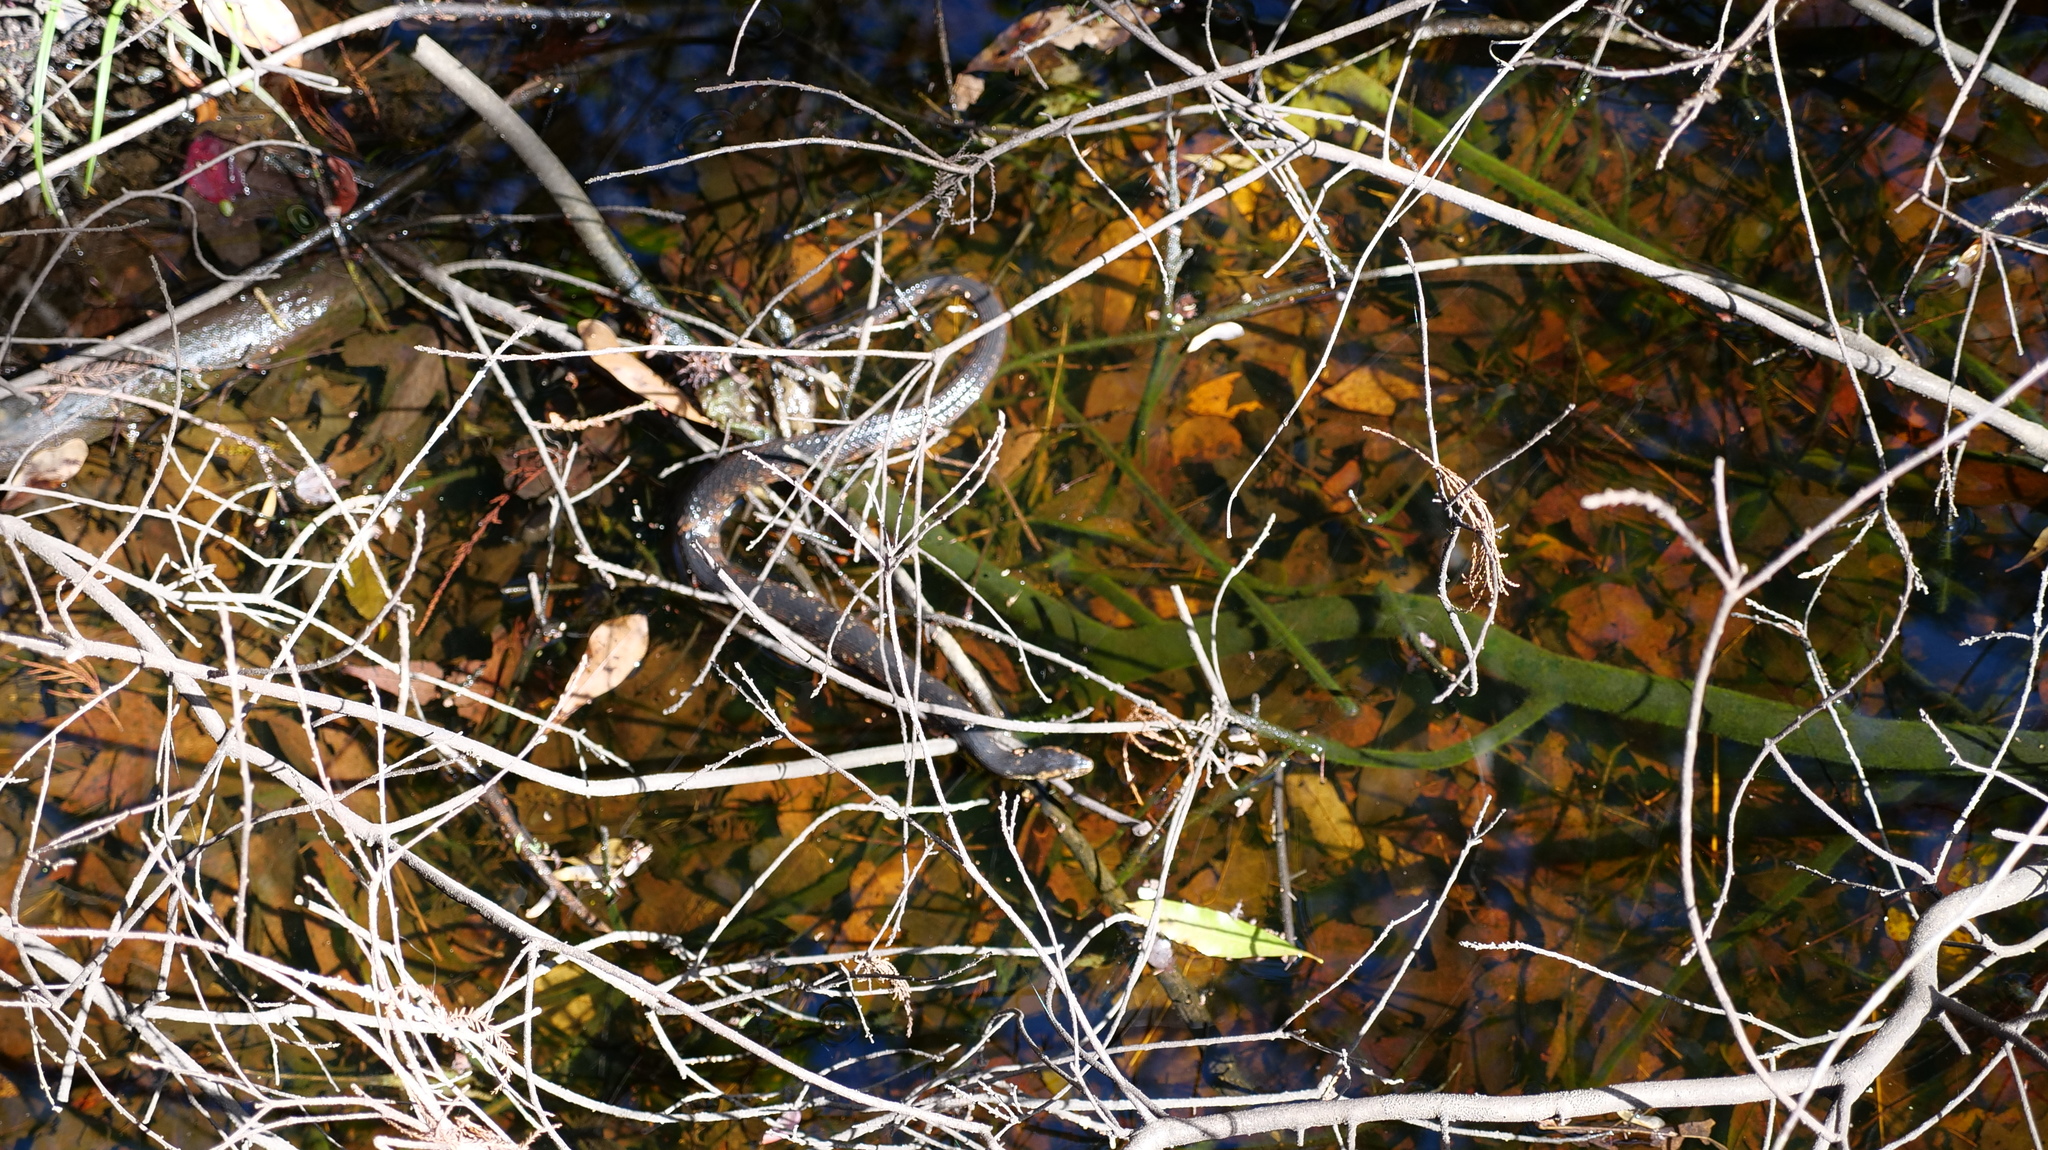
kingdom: Animalia
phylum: Chordata
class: Squamata
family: Colubridae
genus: Nerodia
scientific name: Nerodia fasciata
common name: Southern water snake
